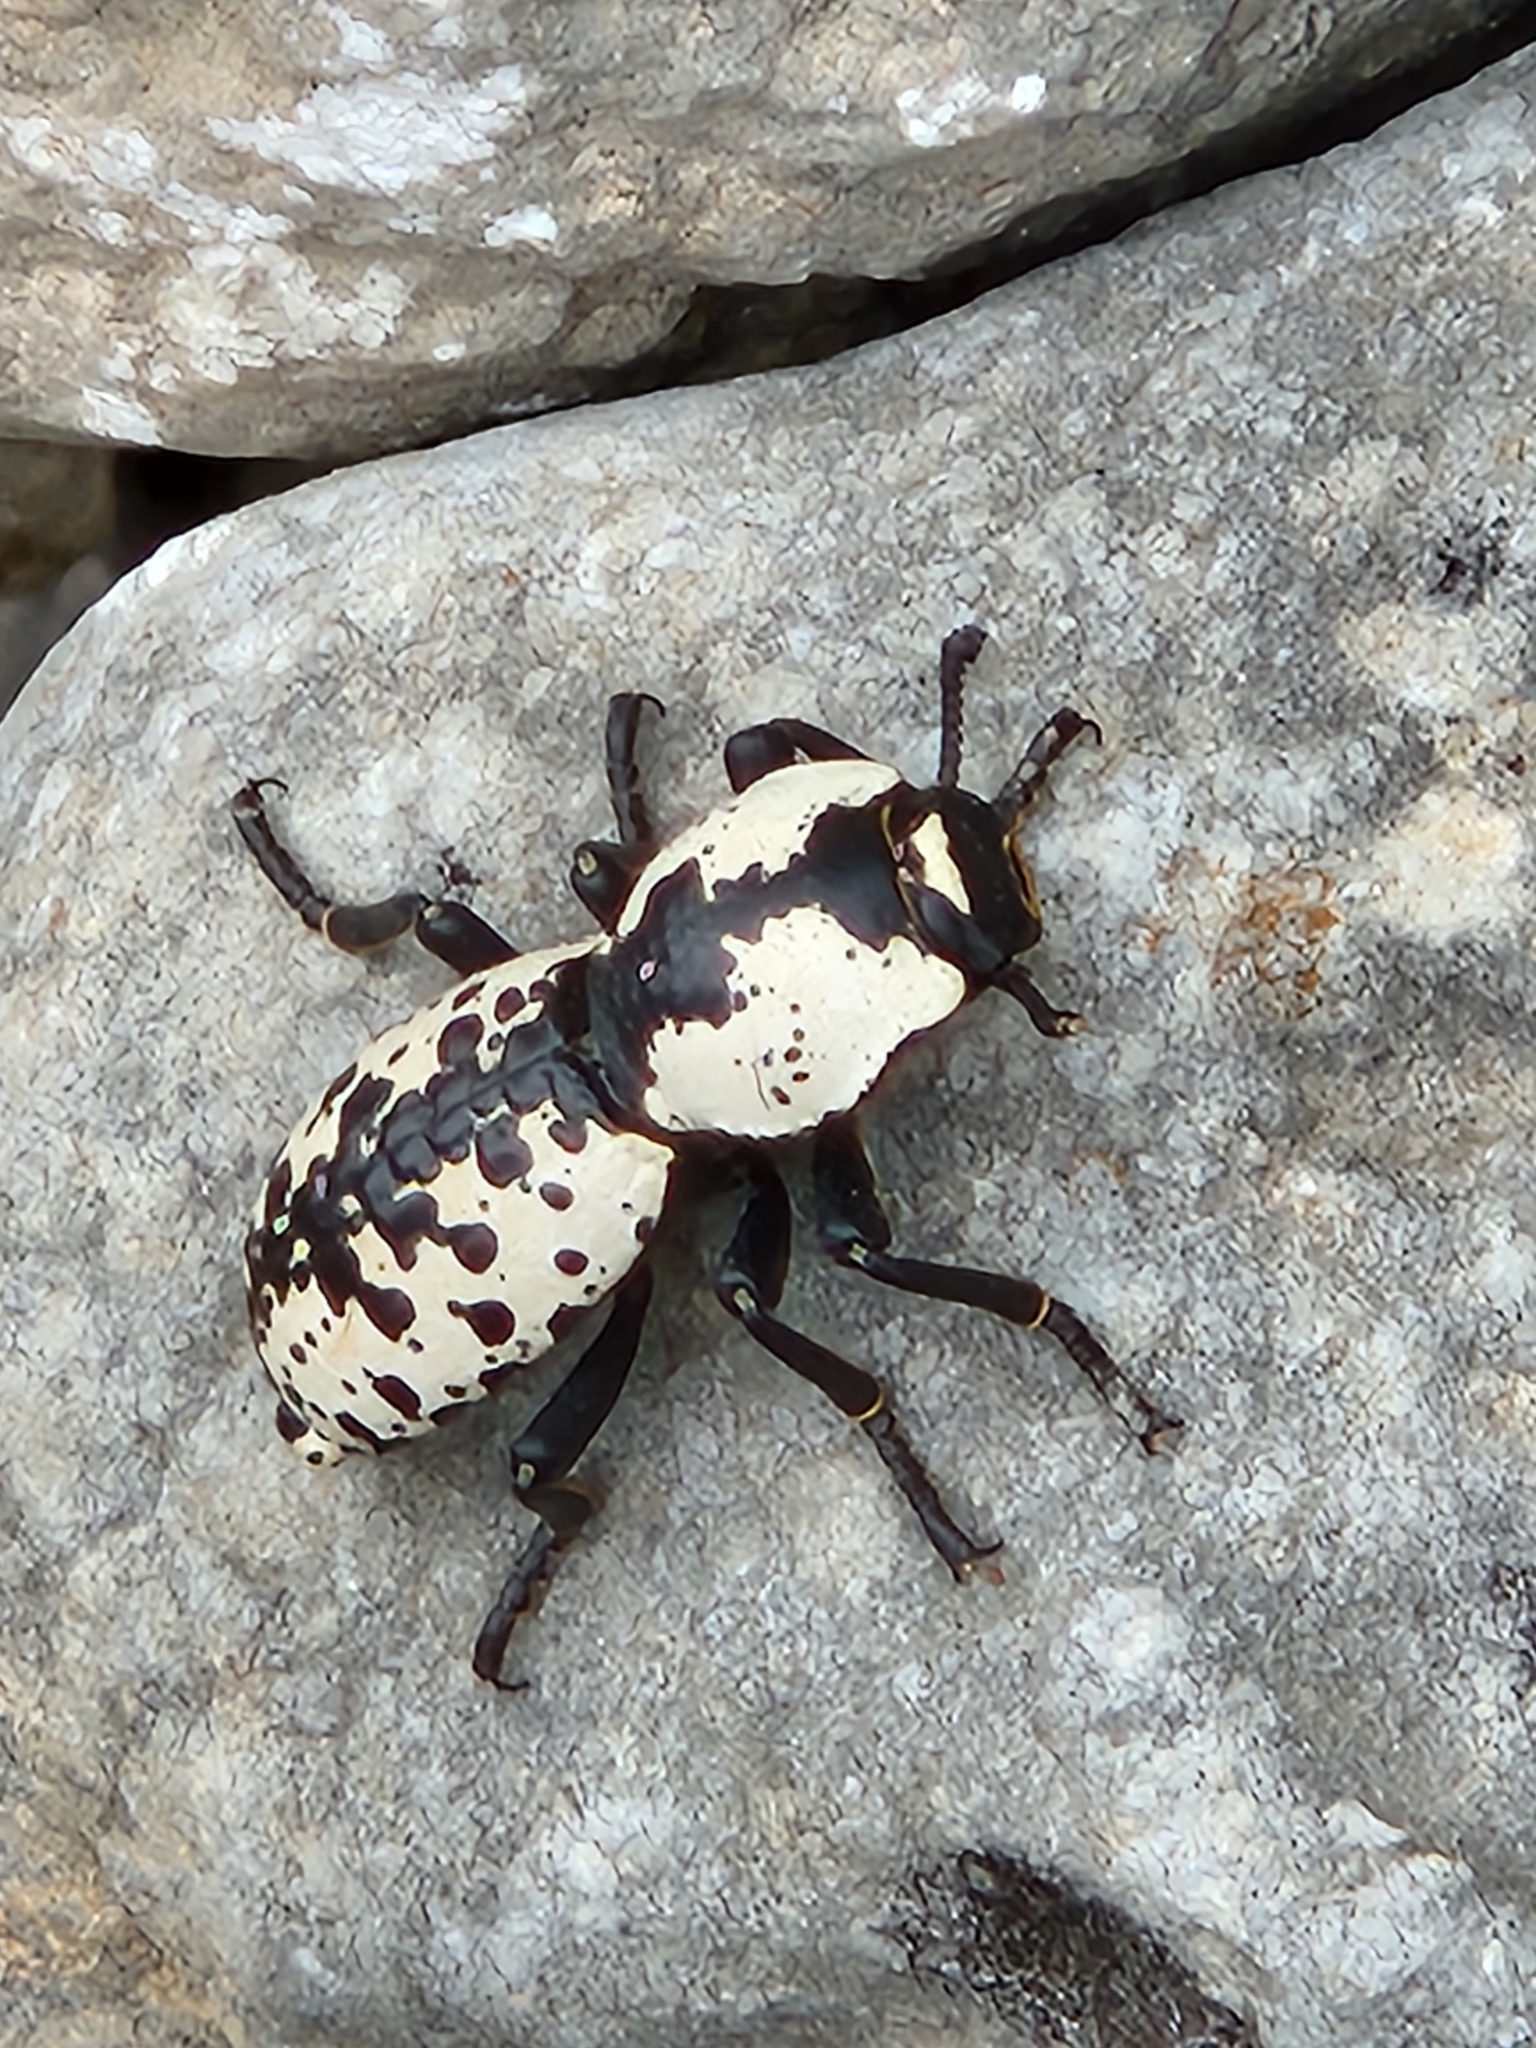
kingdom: Animalia
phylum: Arthropoda
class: Insecta
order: Coleoptera
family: Zopheridae
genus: Zopherus
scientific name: Zopherus nodulosus
